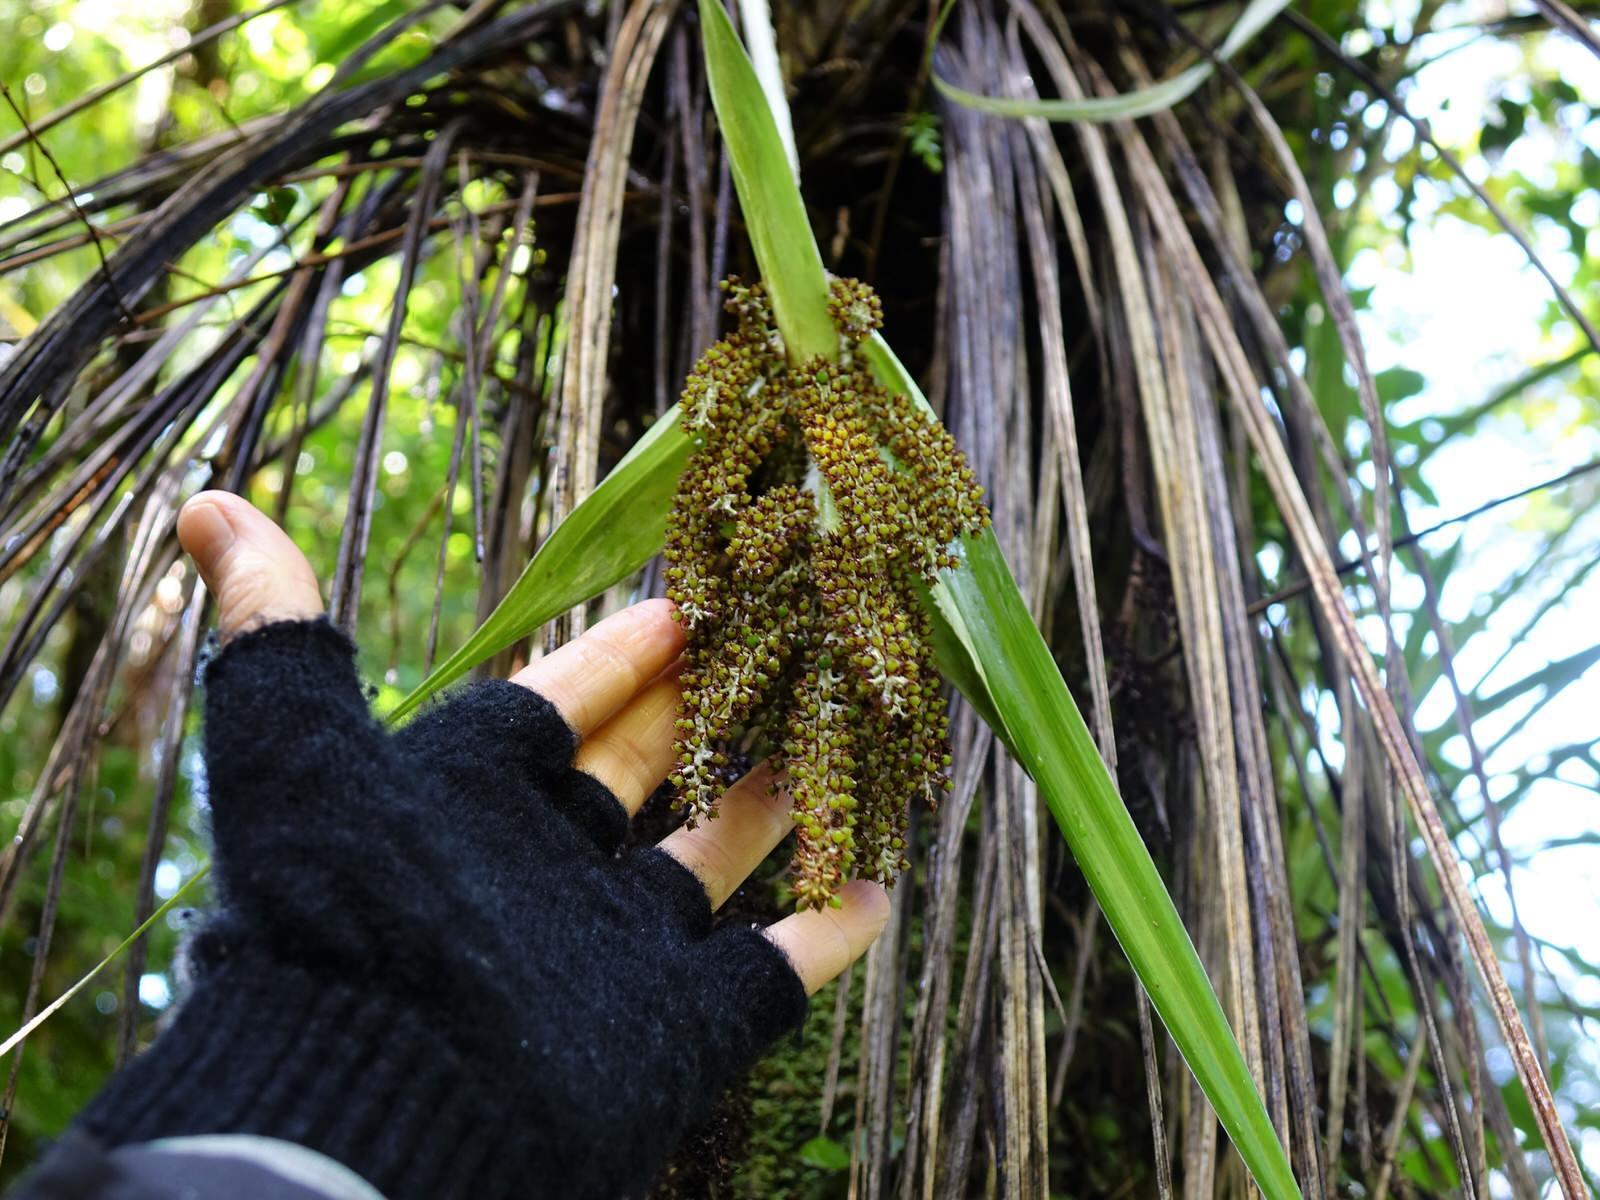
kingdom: Plantae
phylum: Tracheophyta
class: Liliopsida
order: Asparagales
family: Asteliaceae
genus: Astelia
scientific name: Astelia solandri
